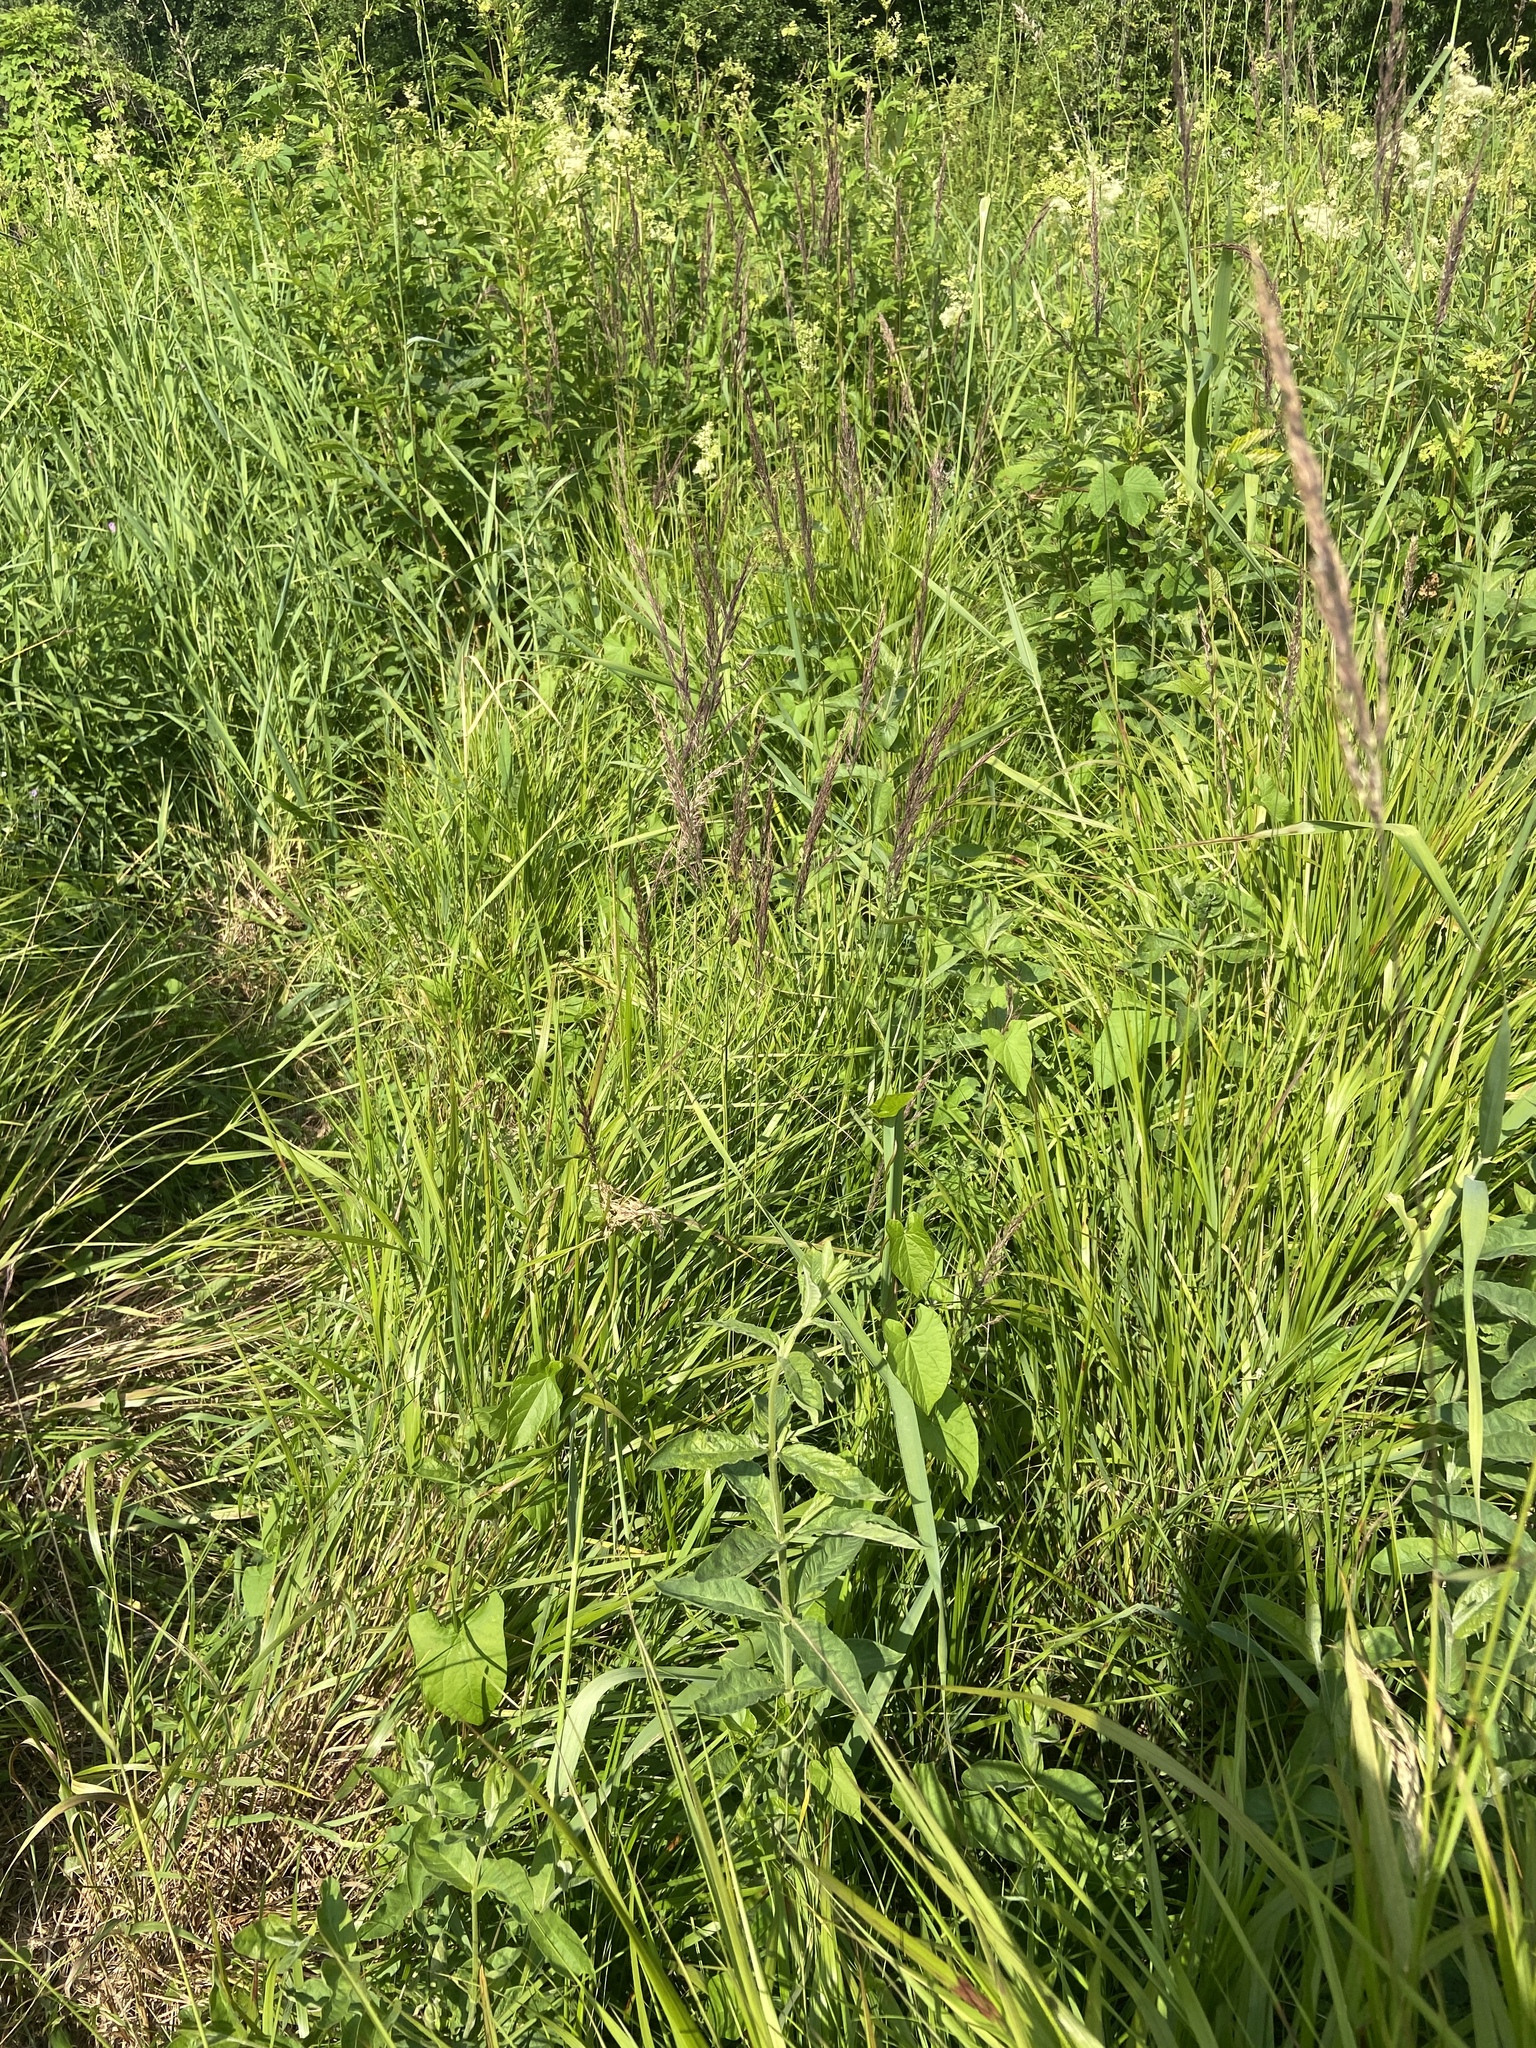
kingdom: Plantae
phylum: Tracheophyta
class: Liliopsida
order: Poales
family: Poaceae
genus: Calamagrostis
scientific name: Calamagrostis canescens
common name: Purple small-reed
